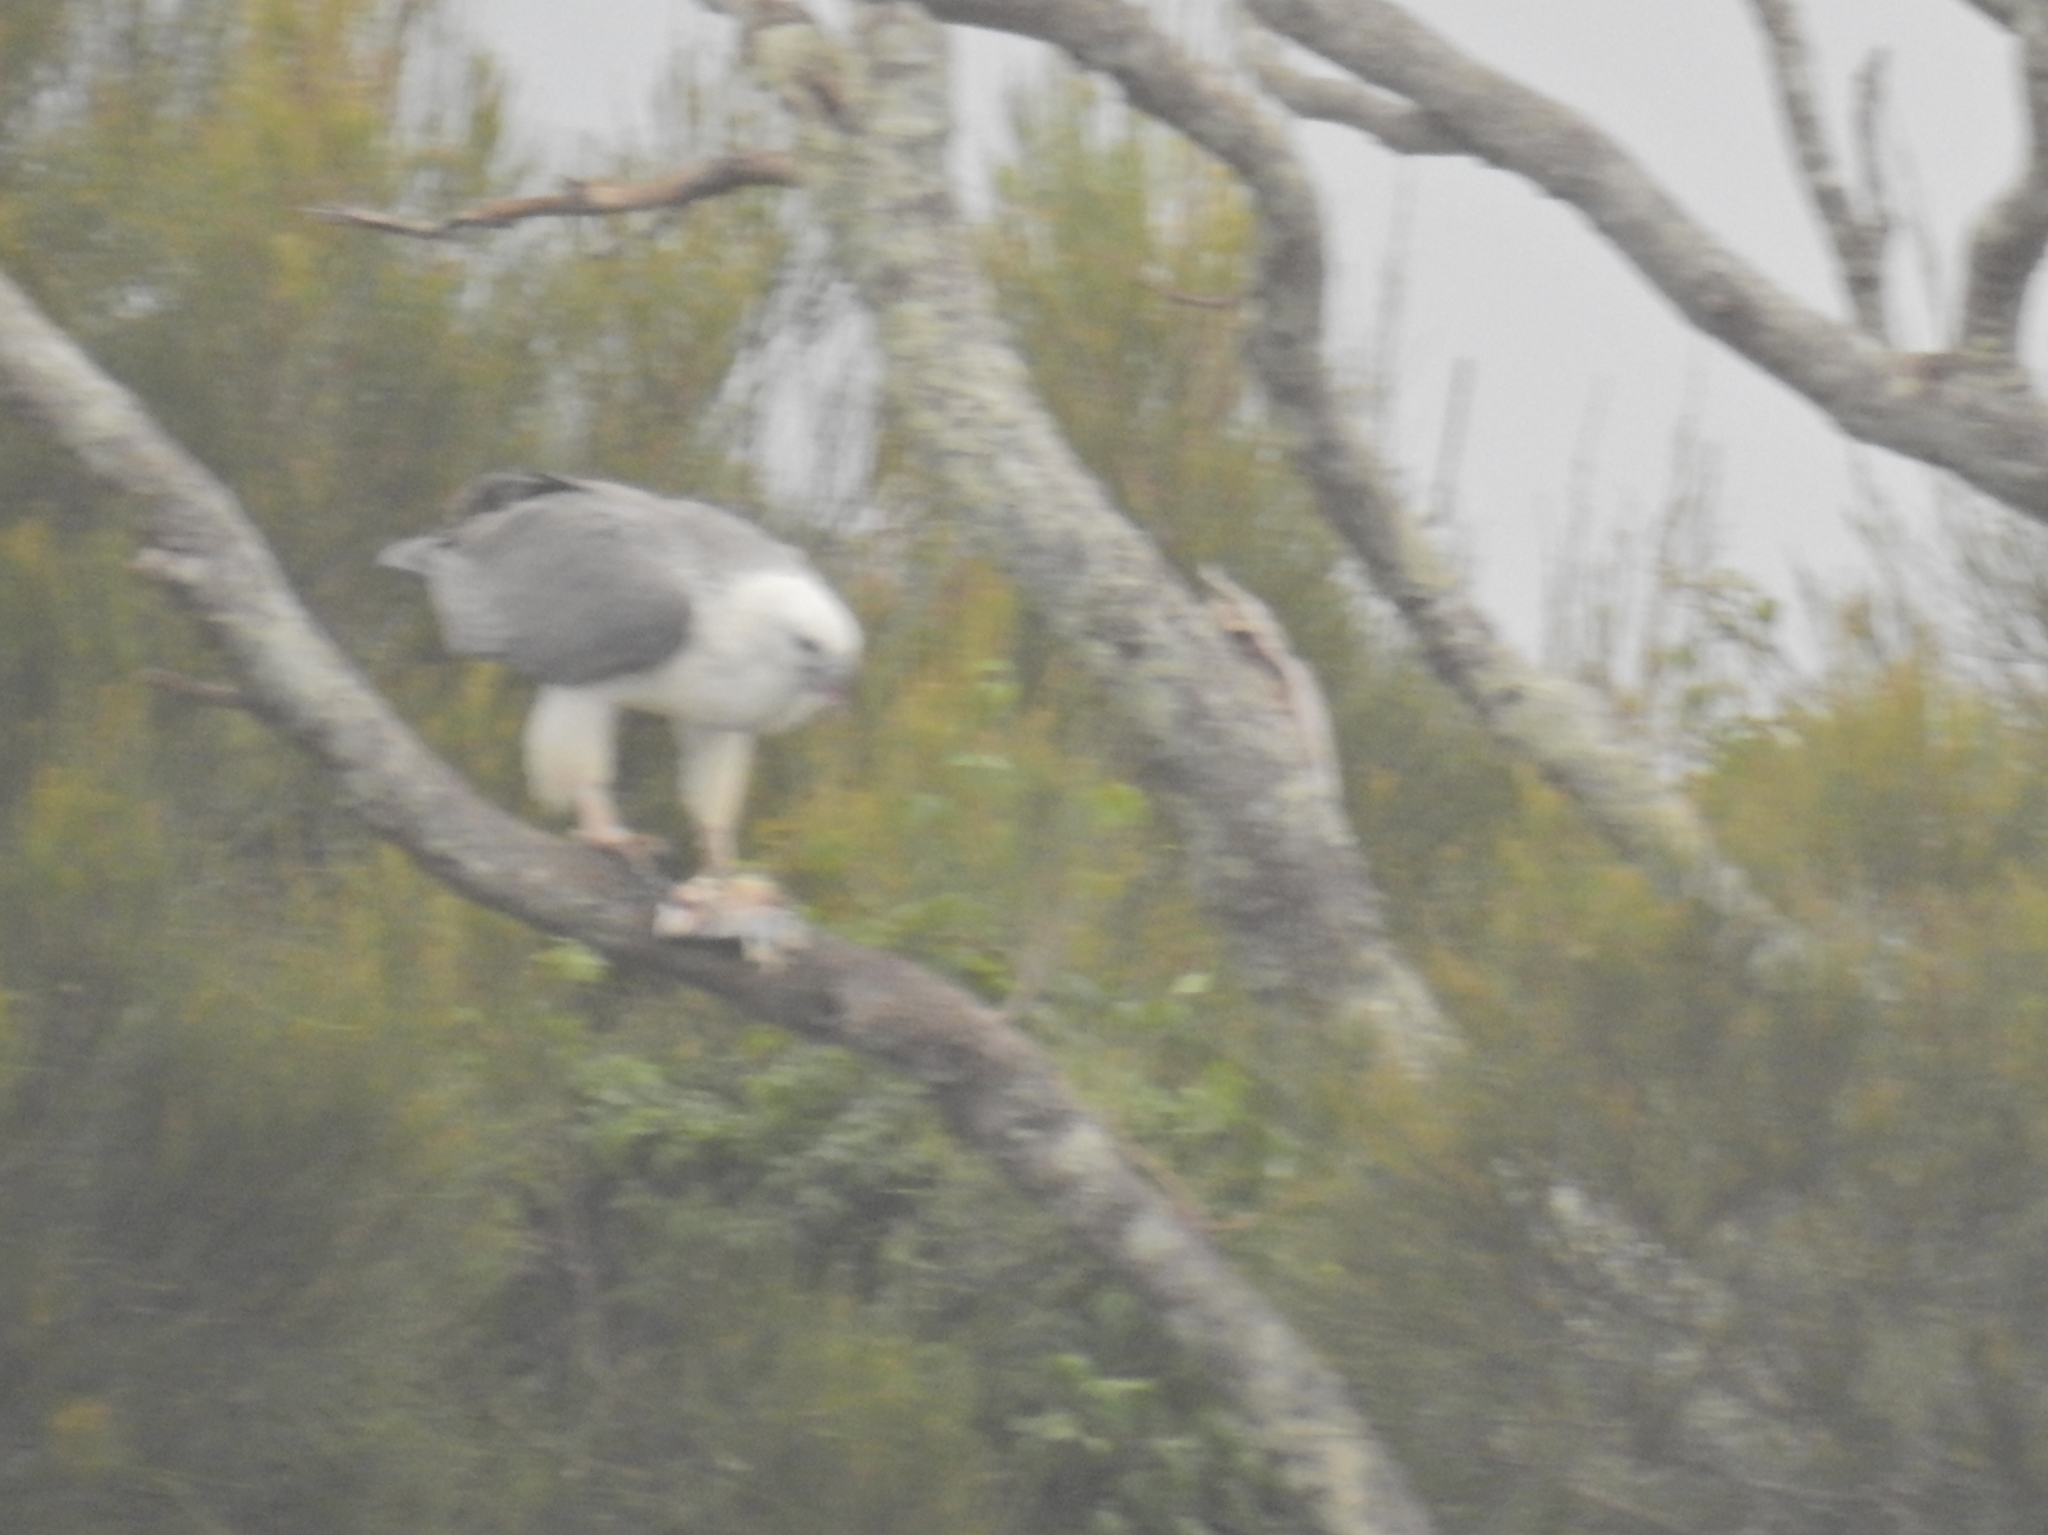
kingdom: Animalia
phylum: Chordata
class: Aves
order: Accipitriformes
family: Accipitridae
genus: Haliaeetus
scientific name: Haliaeetus leucogaster
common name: White-bellied sea eagle
